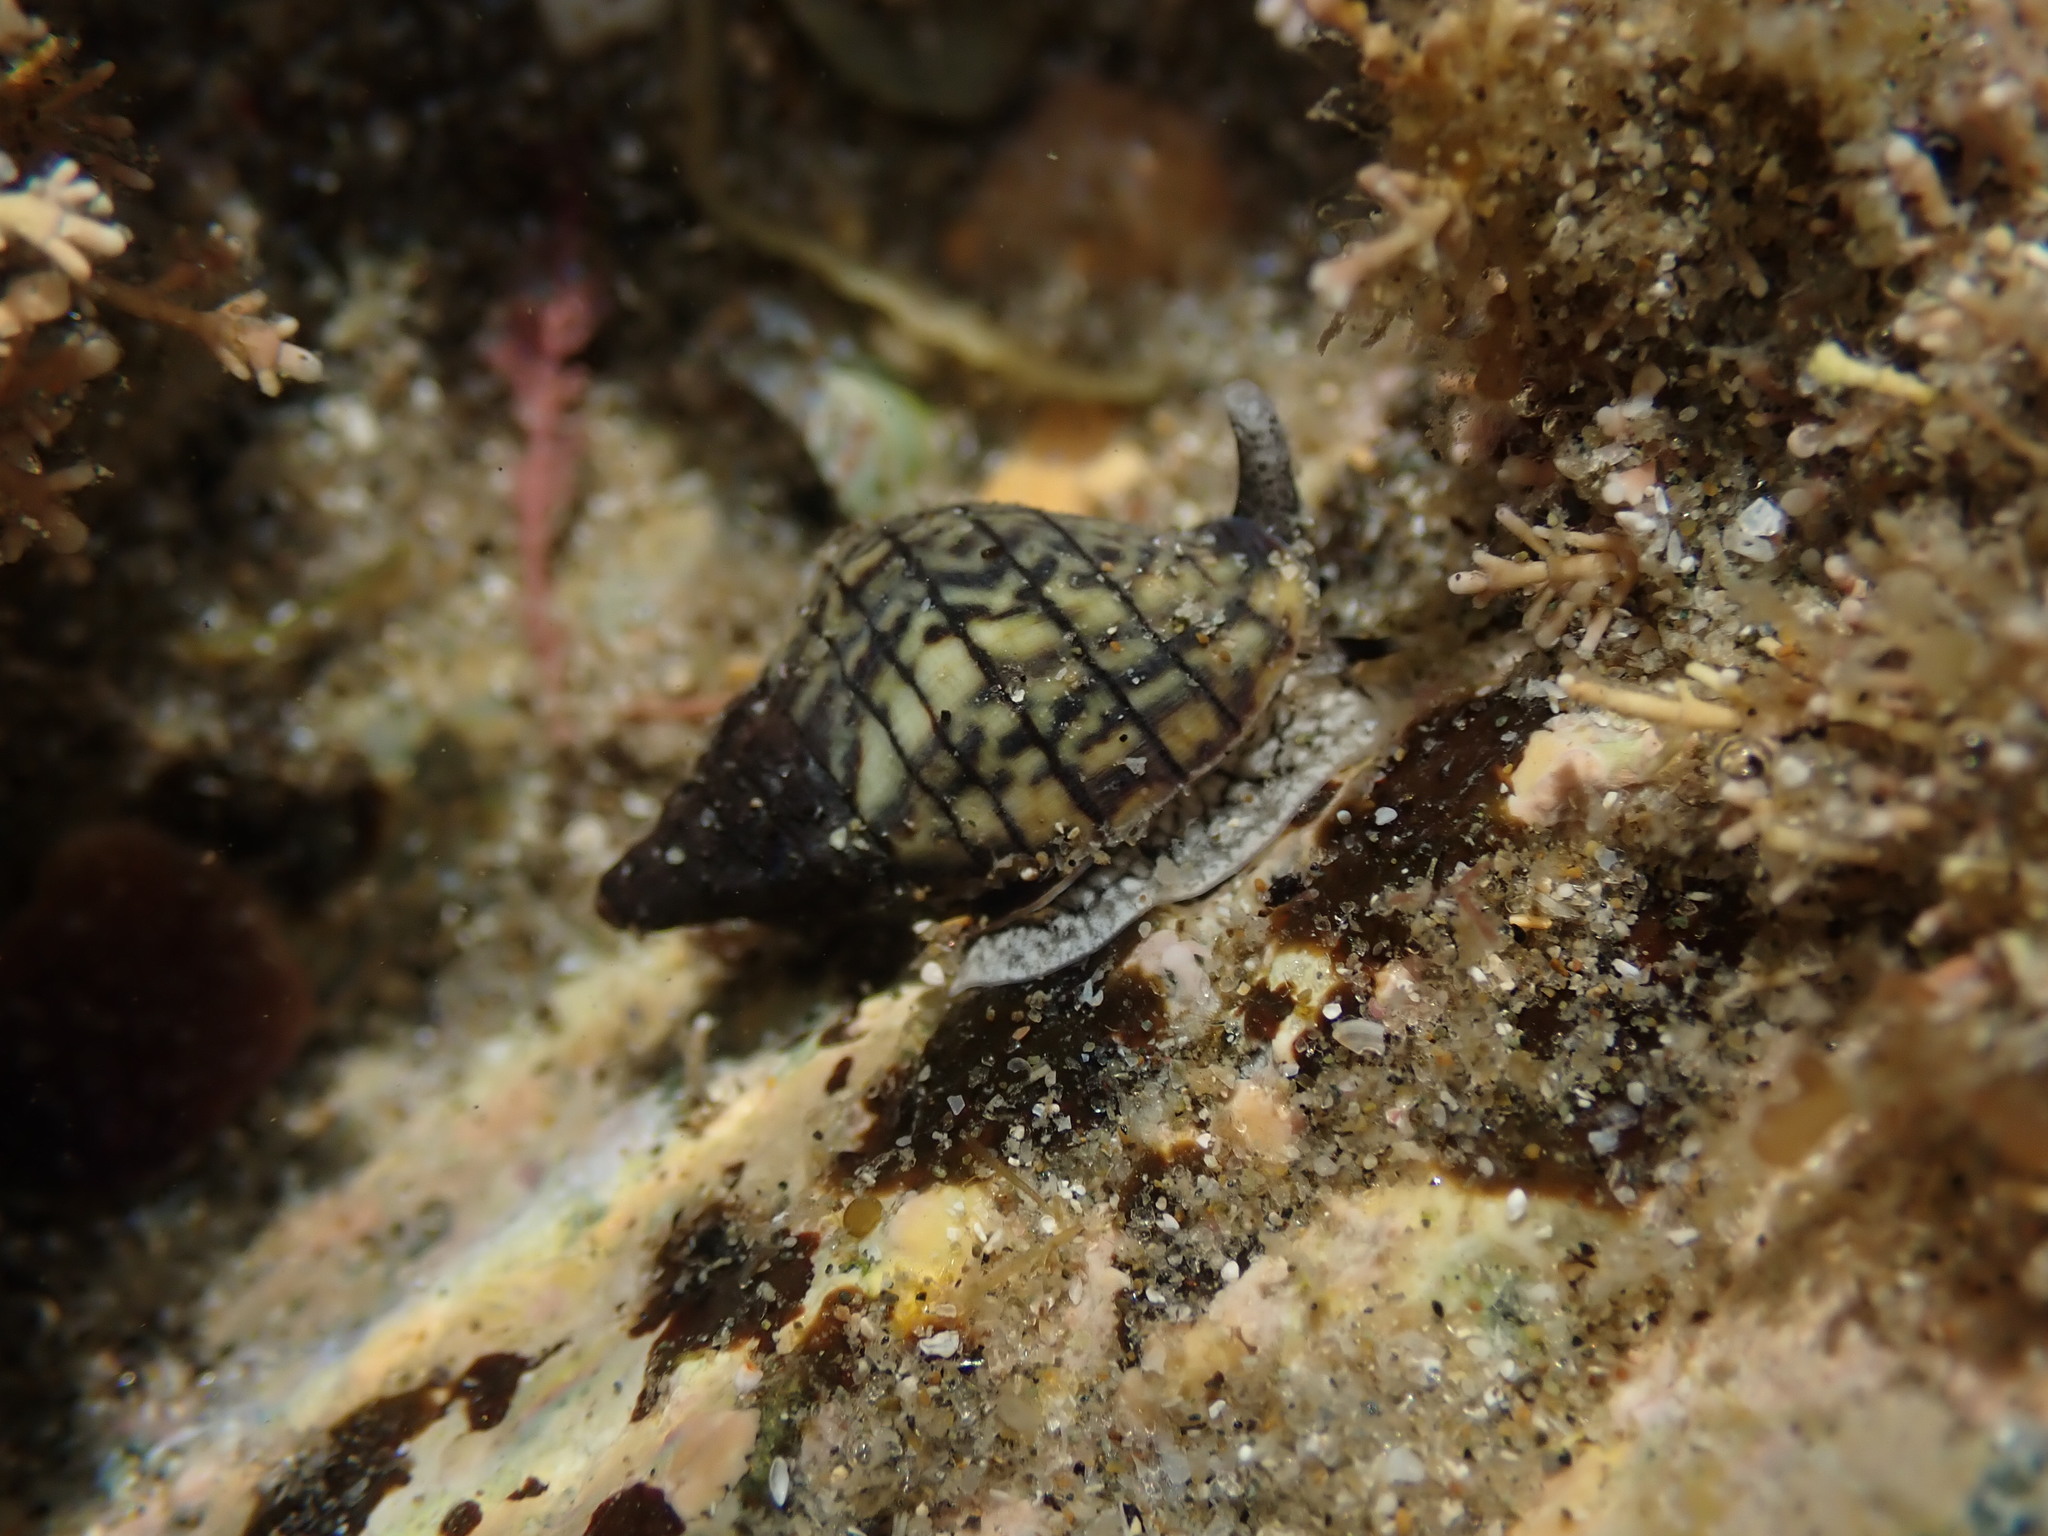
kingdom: Animalia
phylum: Mollusca
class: Gastropoda
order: Neogastropoda
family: Cominellidae
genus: Cominella
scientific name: Cominella virgata
